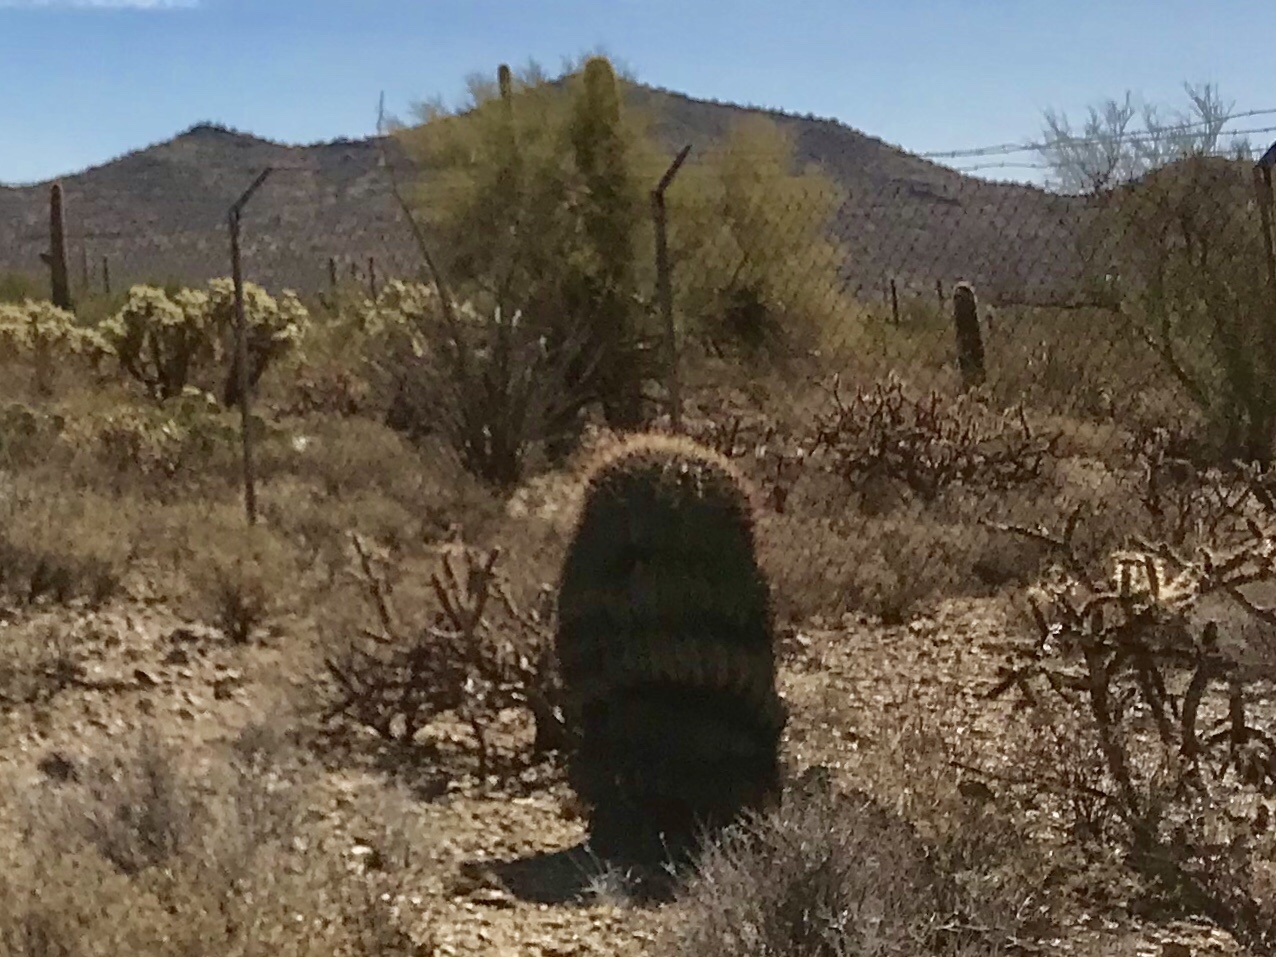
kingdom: Plantae
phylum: Tracheophyta
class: Magnoliopsida
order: Caryophyllales
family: Cactaceae
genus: Ferocactus
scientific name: Ferocactus wislizeni
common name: Candy barrel cactus
